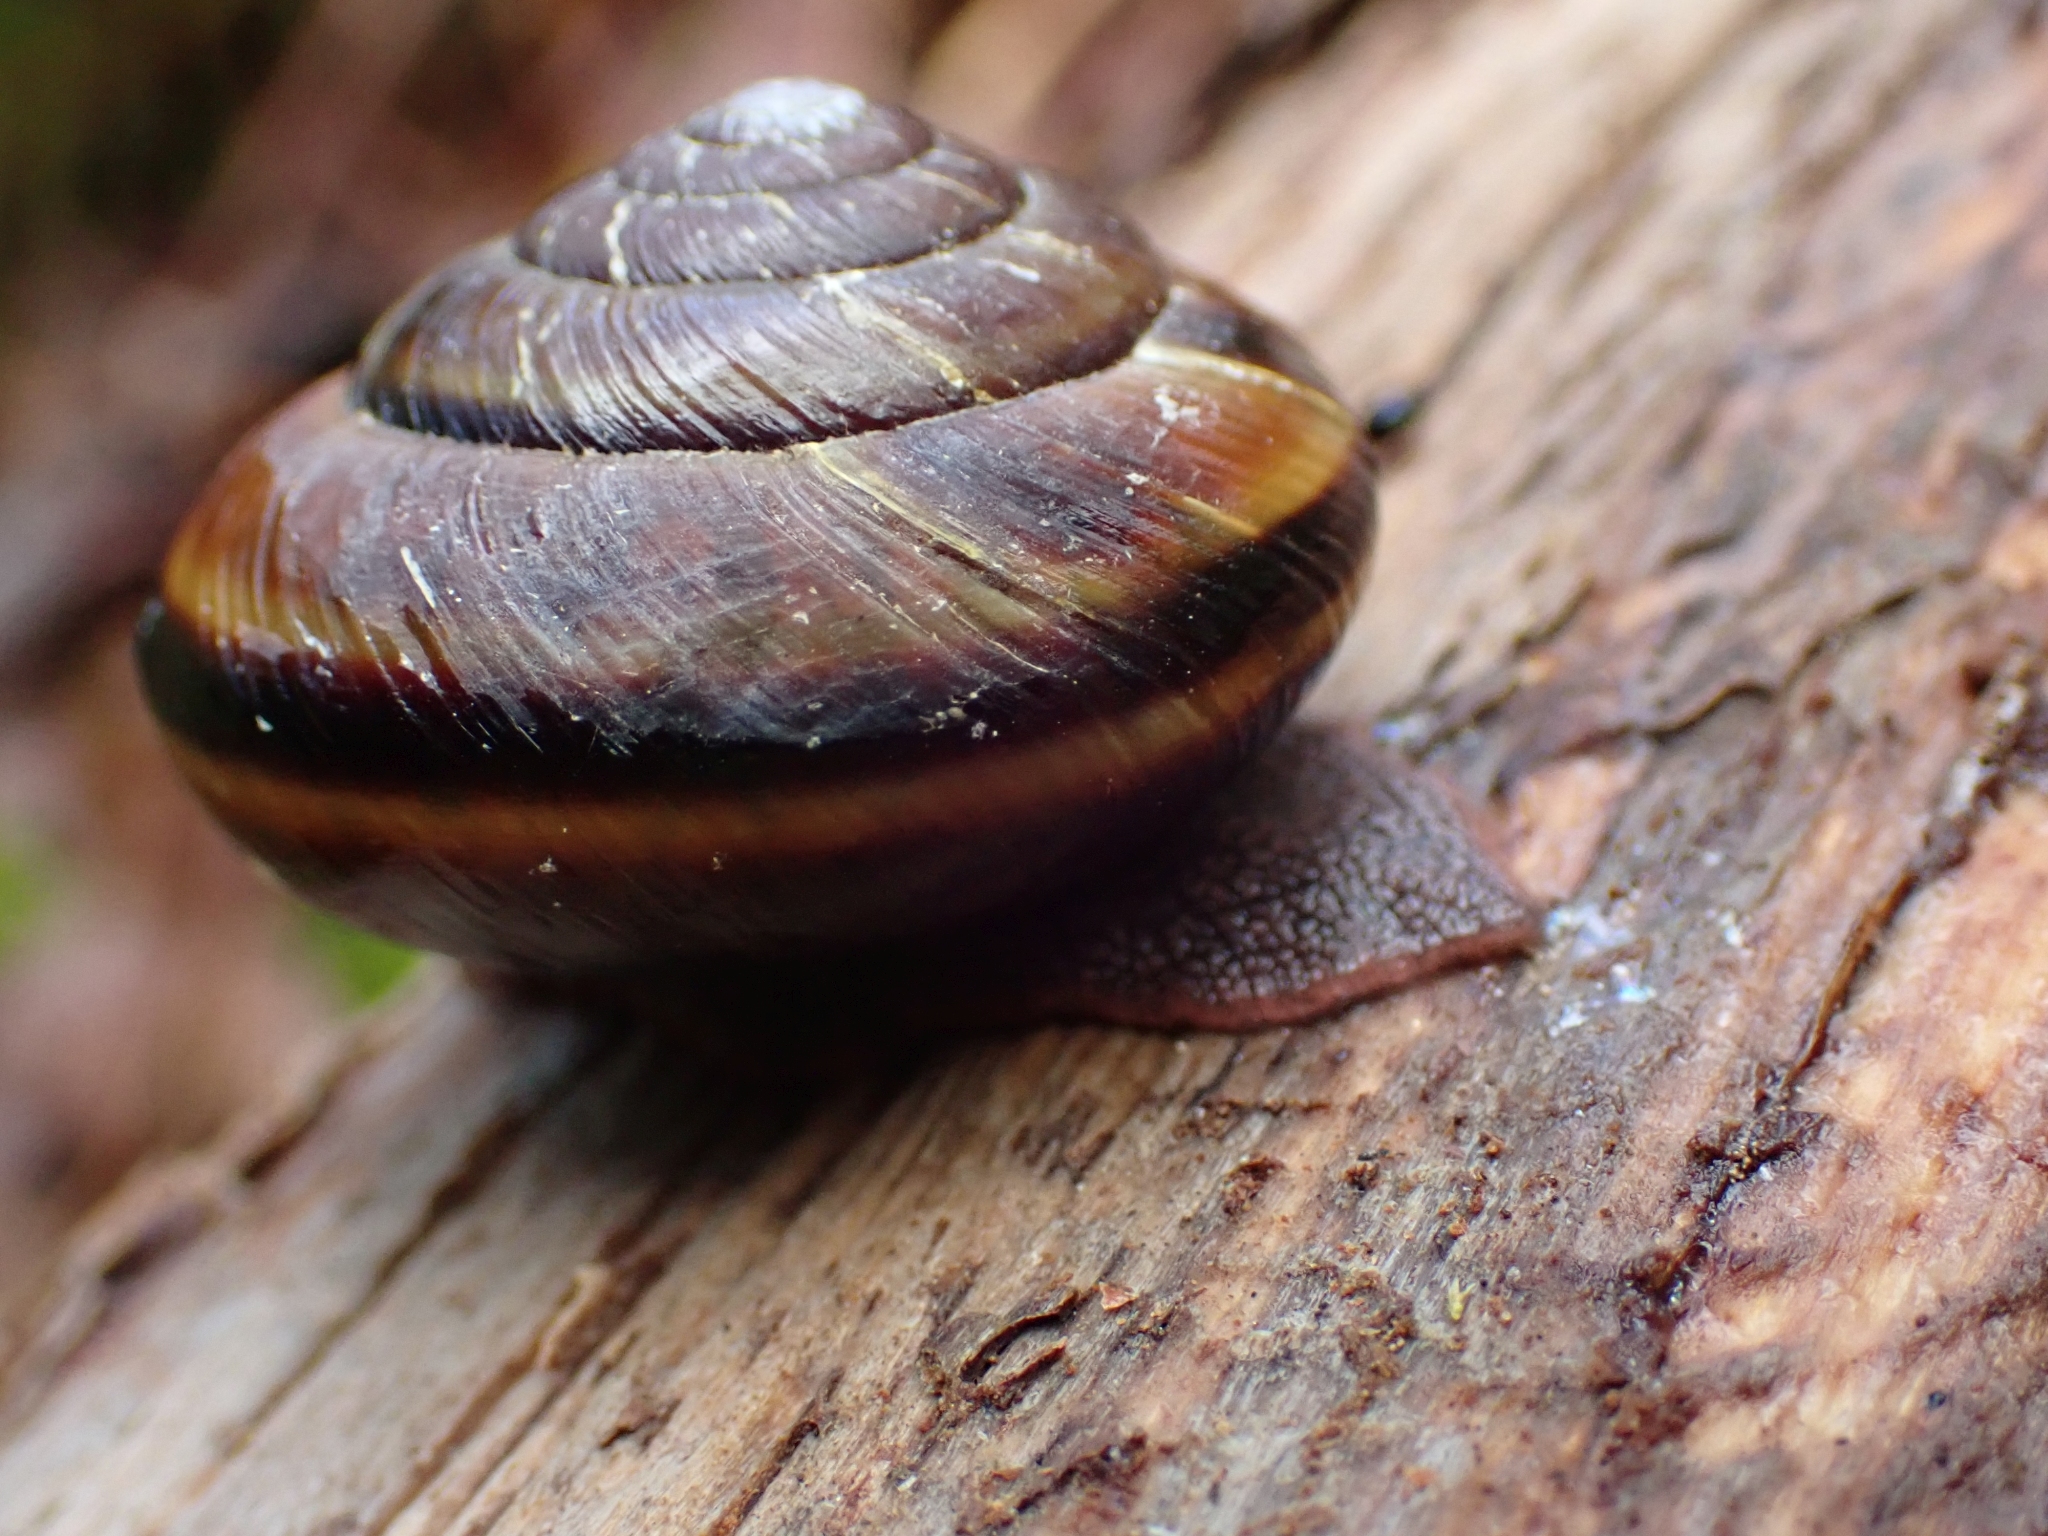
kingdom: Animalia
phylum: Mollusca
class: Gastropoda
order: Stylommatophora
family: Xanthonychidae
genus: Monadenia
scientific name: Monadenia fidelis
